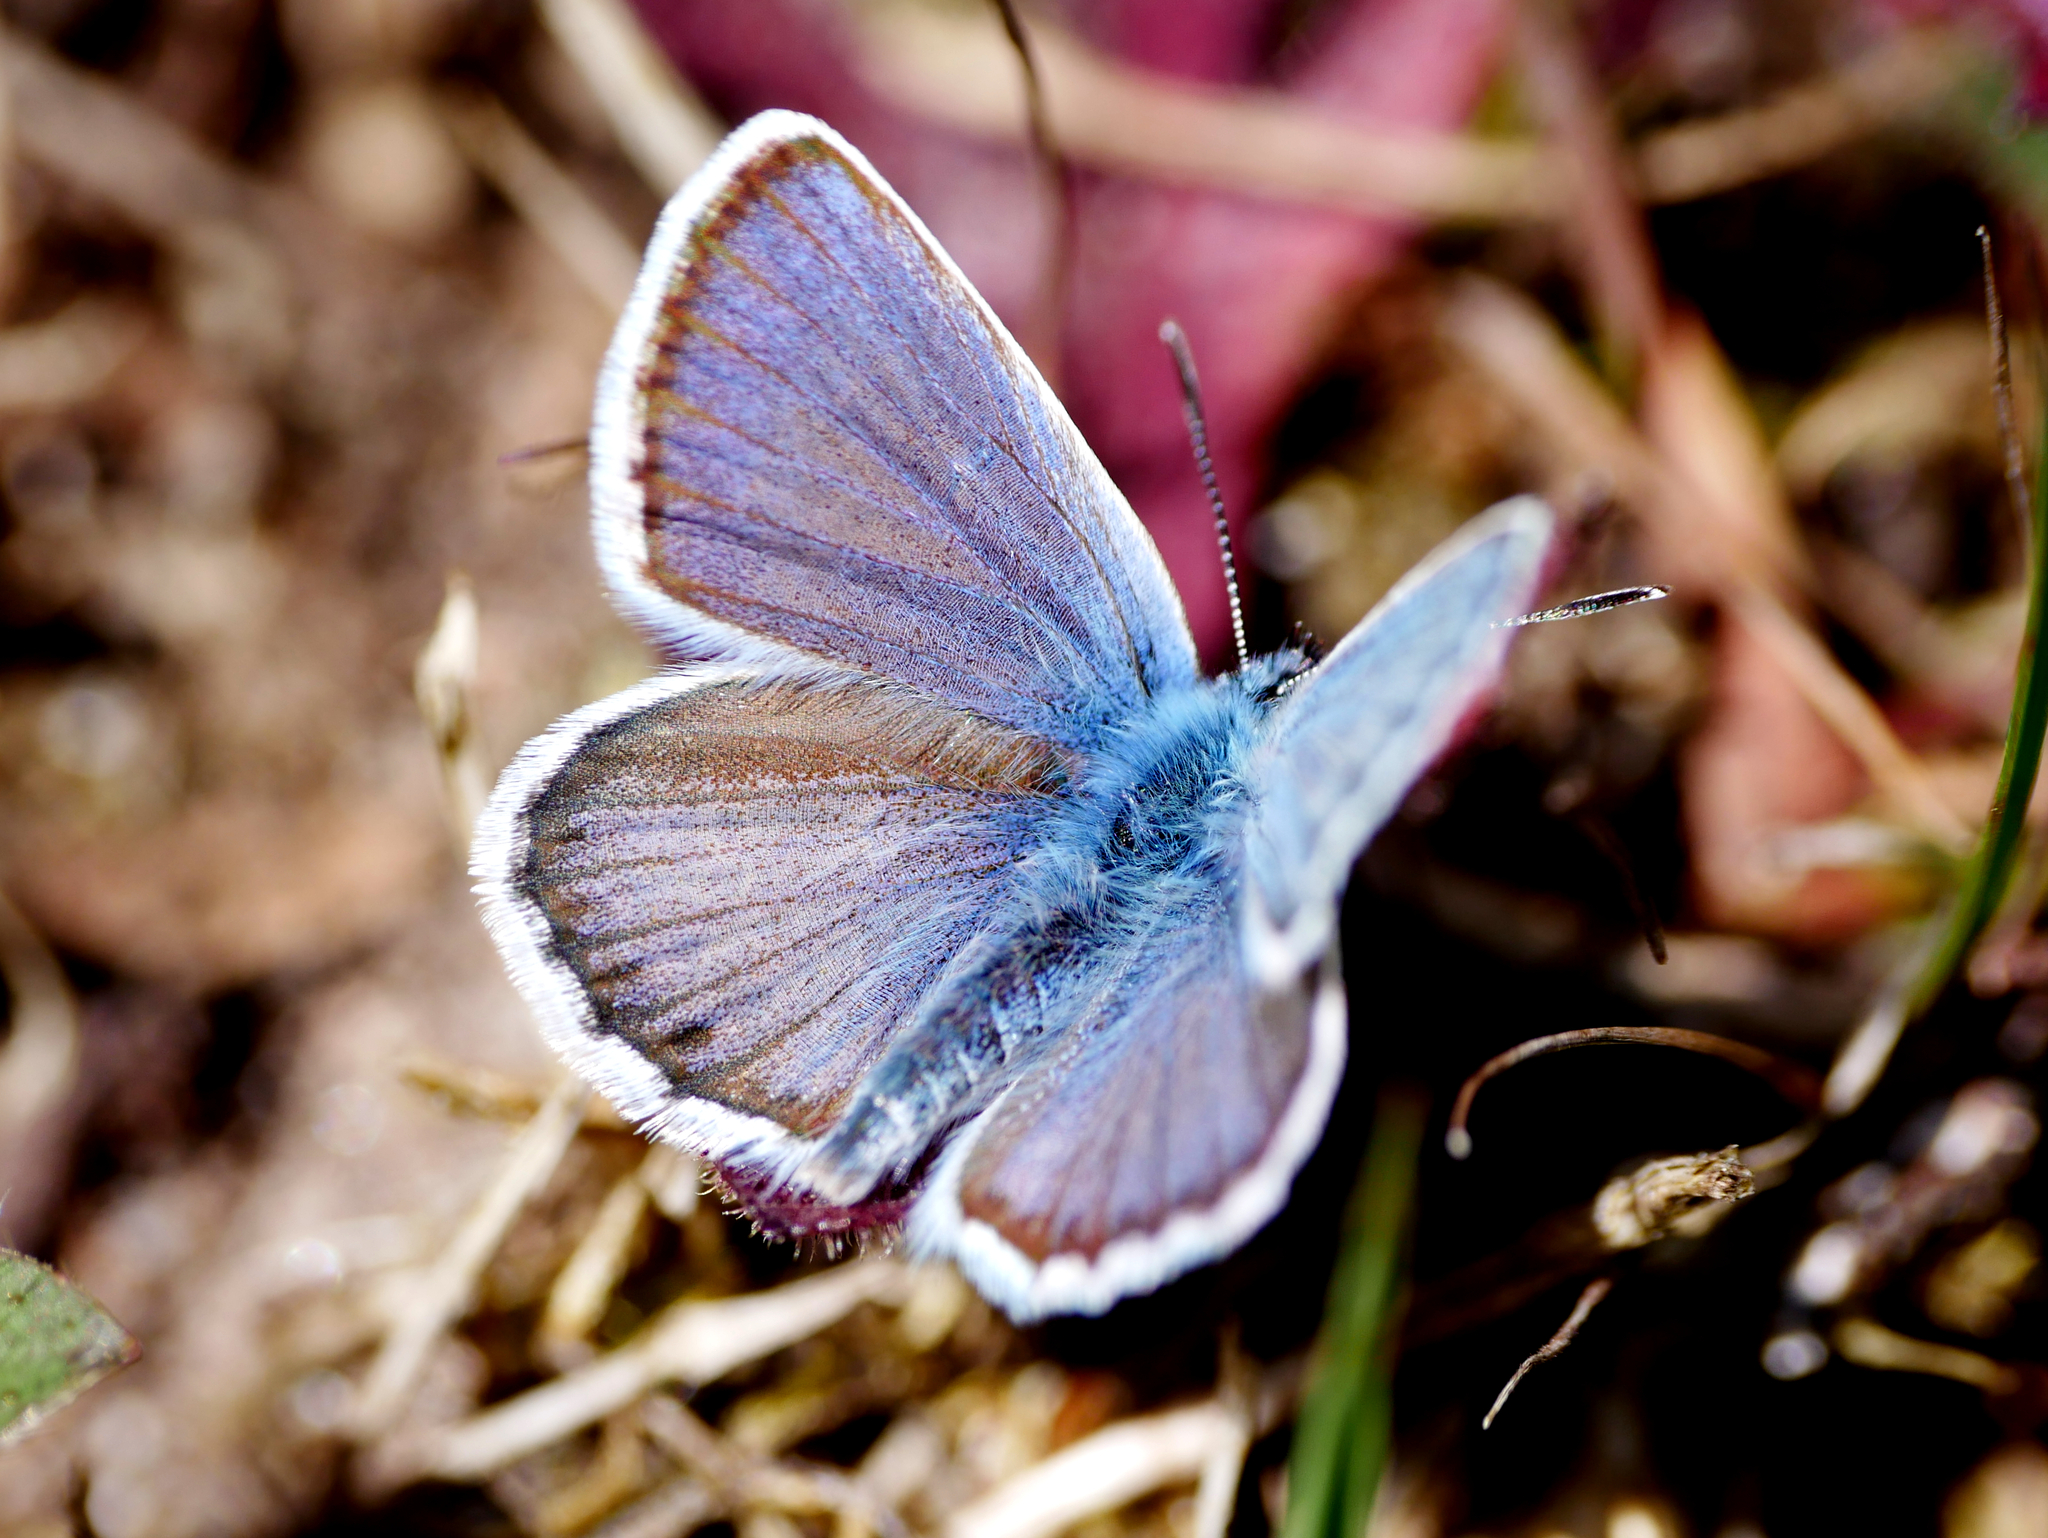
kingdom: Animalia
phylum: Arthropoda
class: Insecta
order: Lepidoptera
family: Lycaenidae
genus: Lycaeides
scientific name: Lycaeides idas
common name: Northern blue
